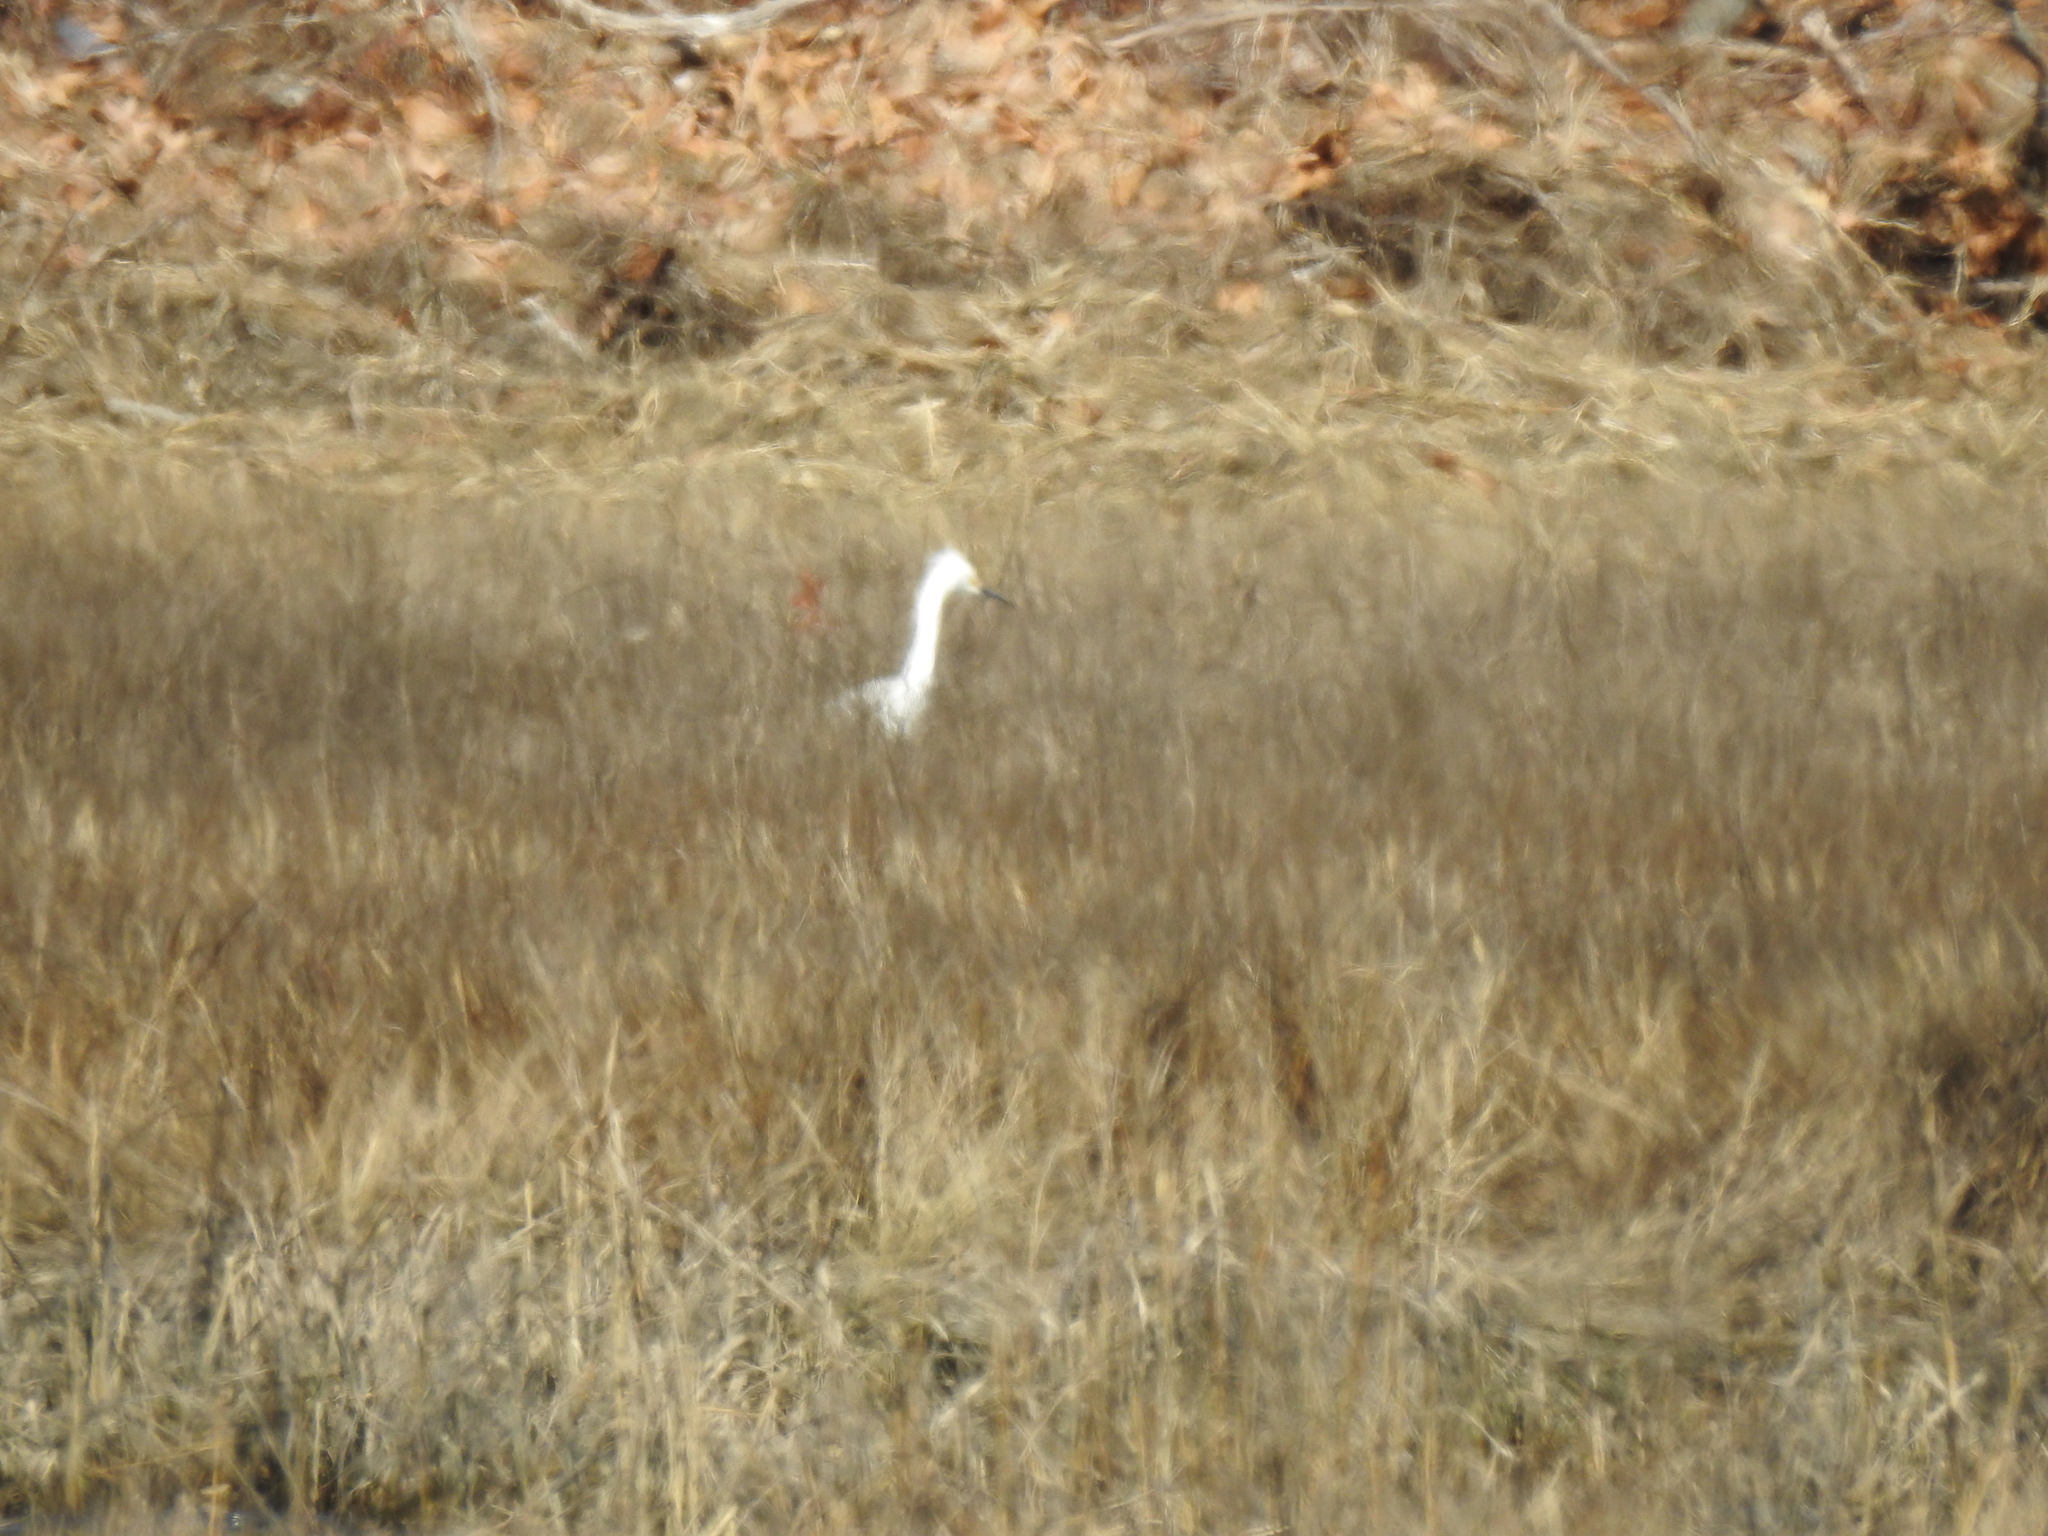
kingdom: Animalia
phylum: Chordata
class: Aves
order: Pelecaniformes
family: Ardeidae
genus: Egretta
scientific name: Egretta thula
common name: Snowy egret
